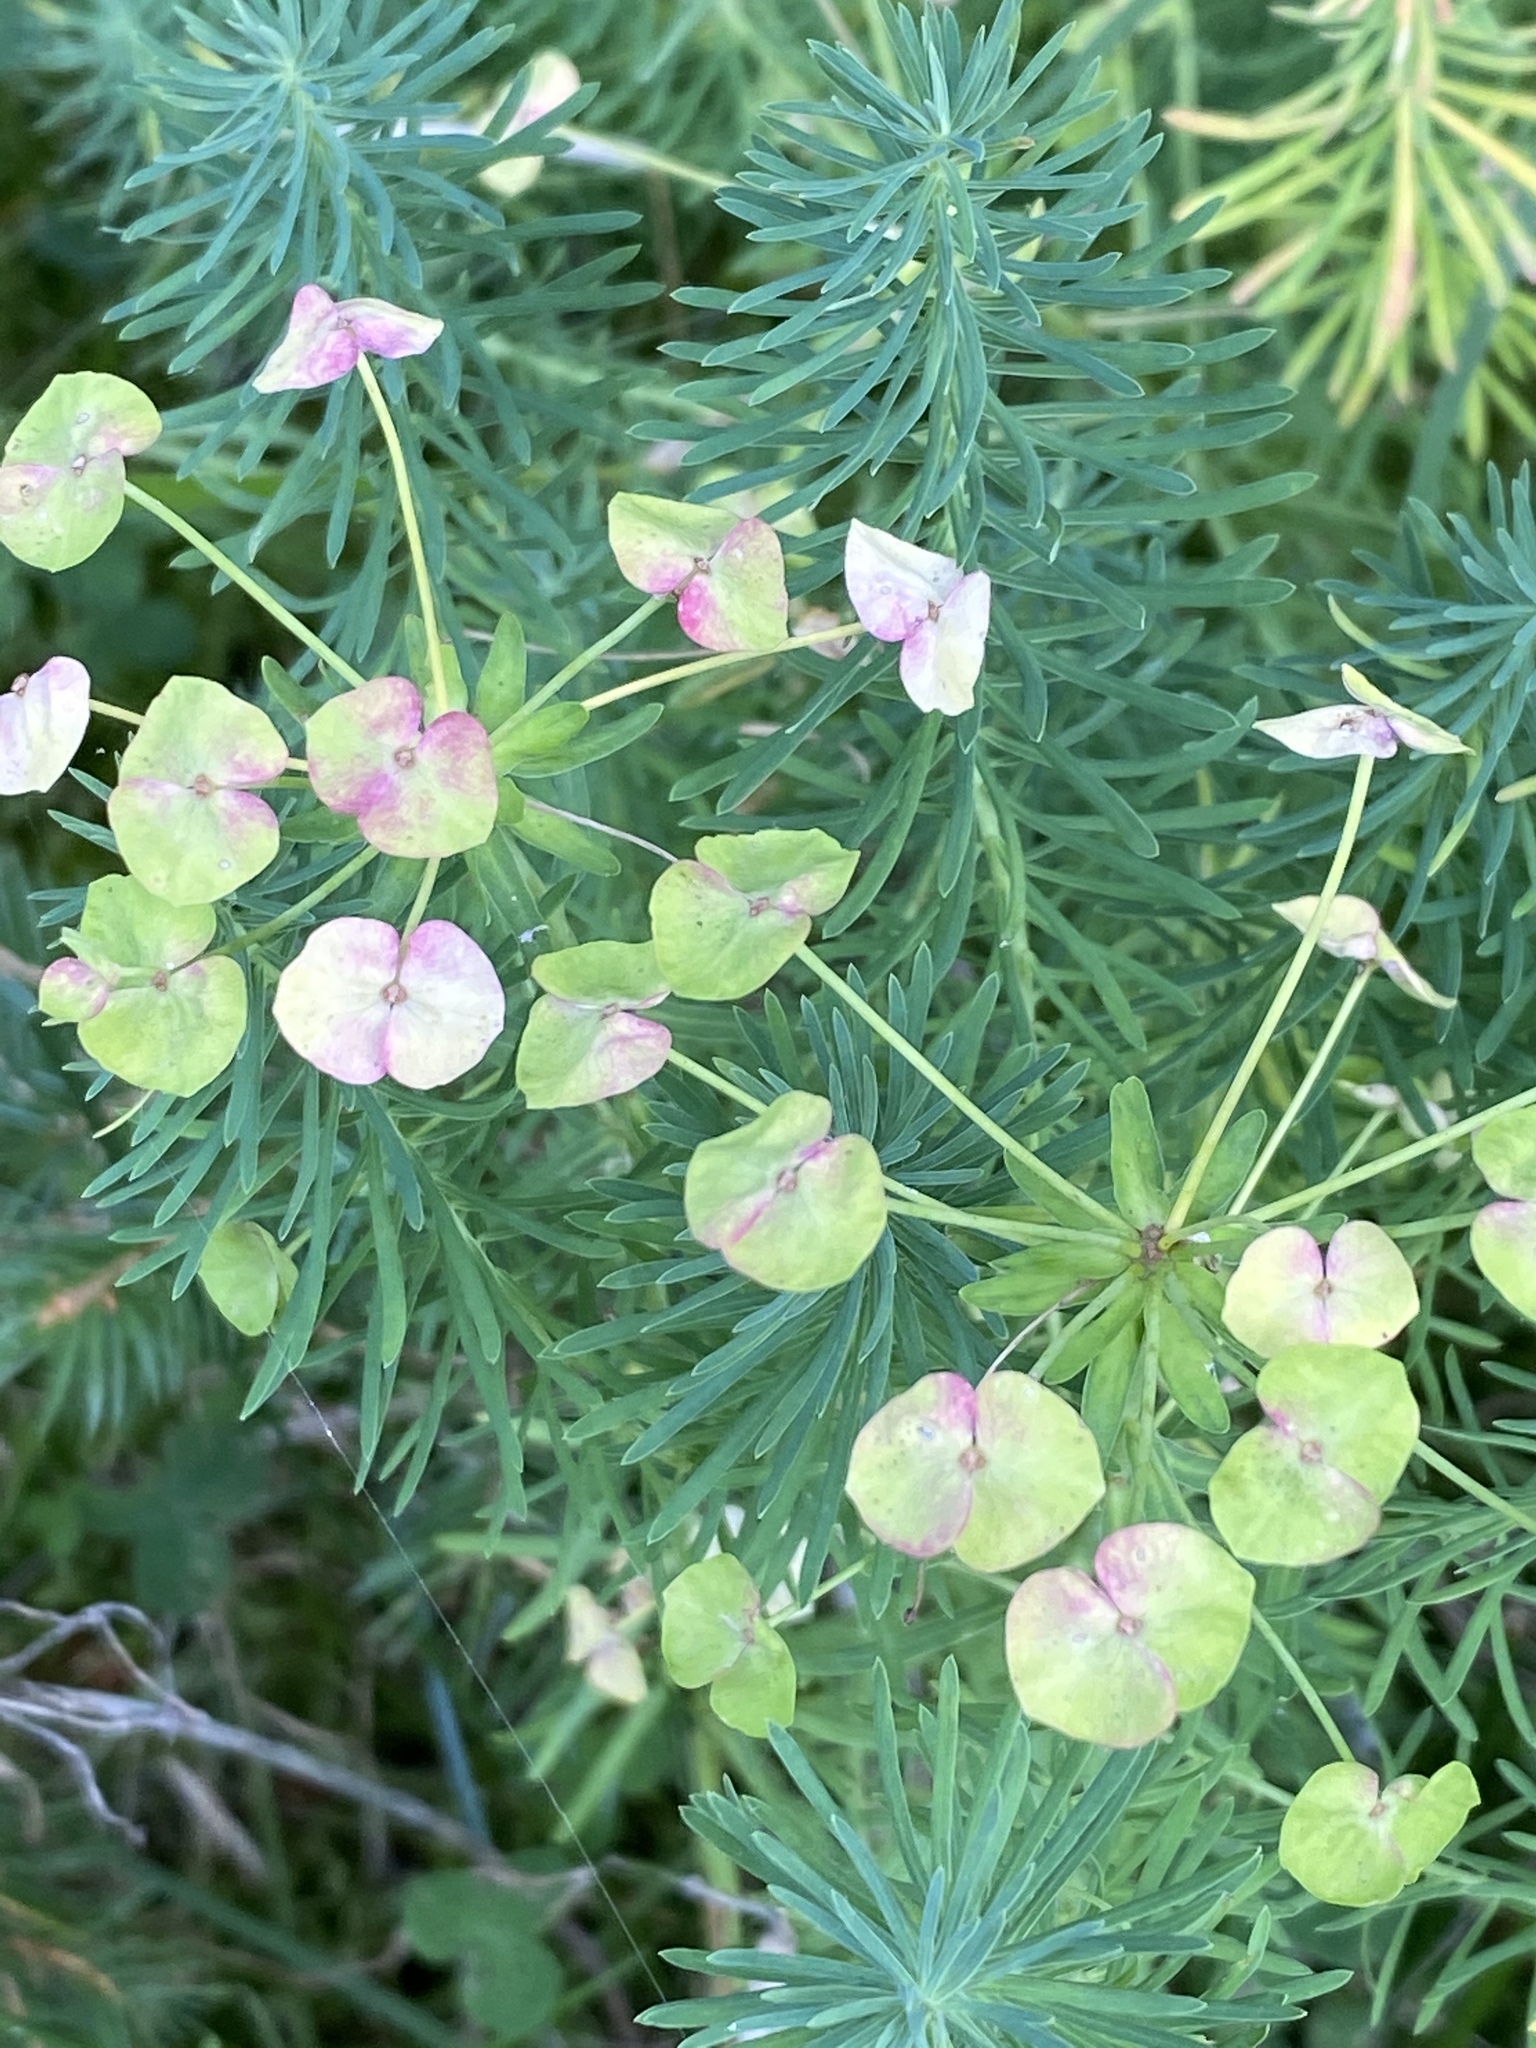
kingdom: Plantae
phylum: Tracheophyta
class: Magnoliopsida
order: Malpighiales
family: Euphorbiaceae
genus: Euphorbia
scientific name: Euphorbia cyparissias
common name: Cypress spurge
